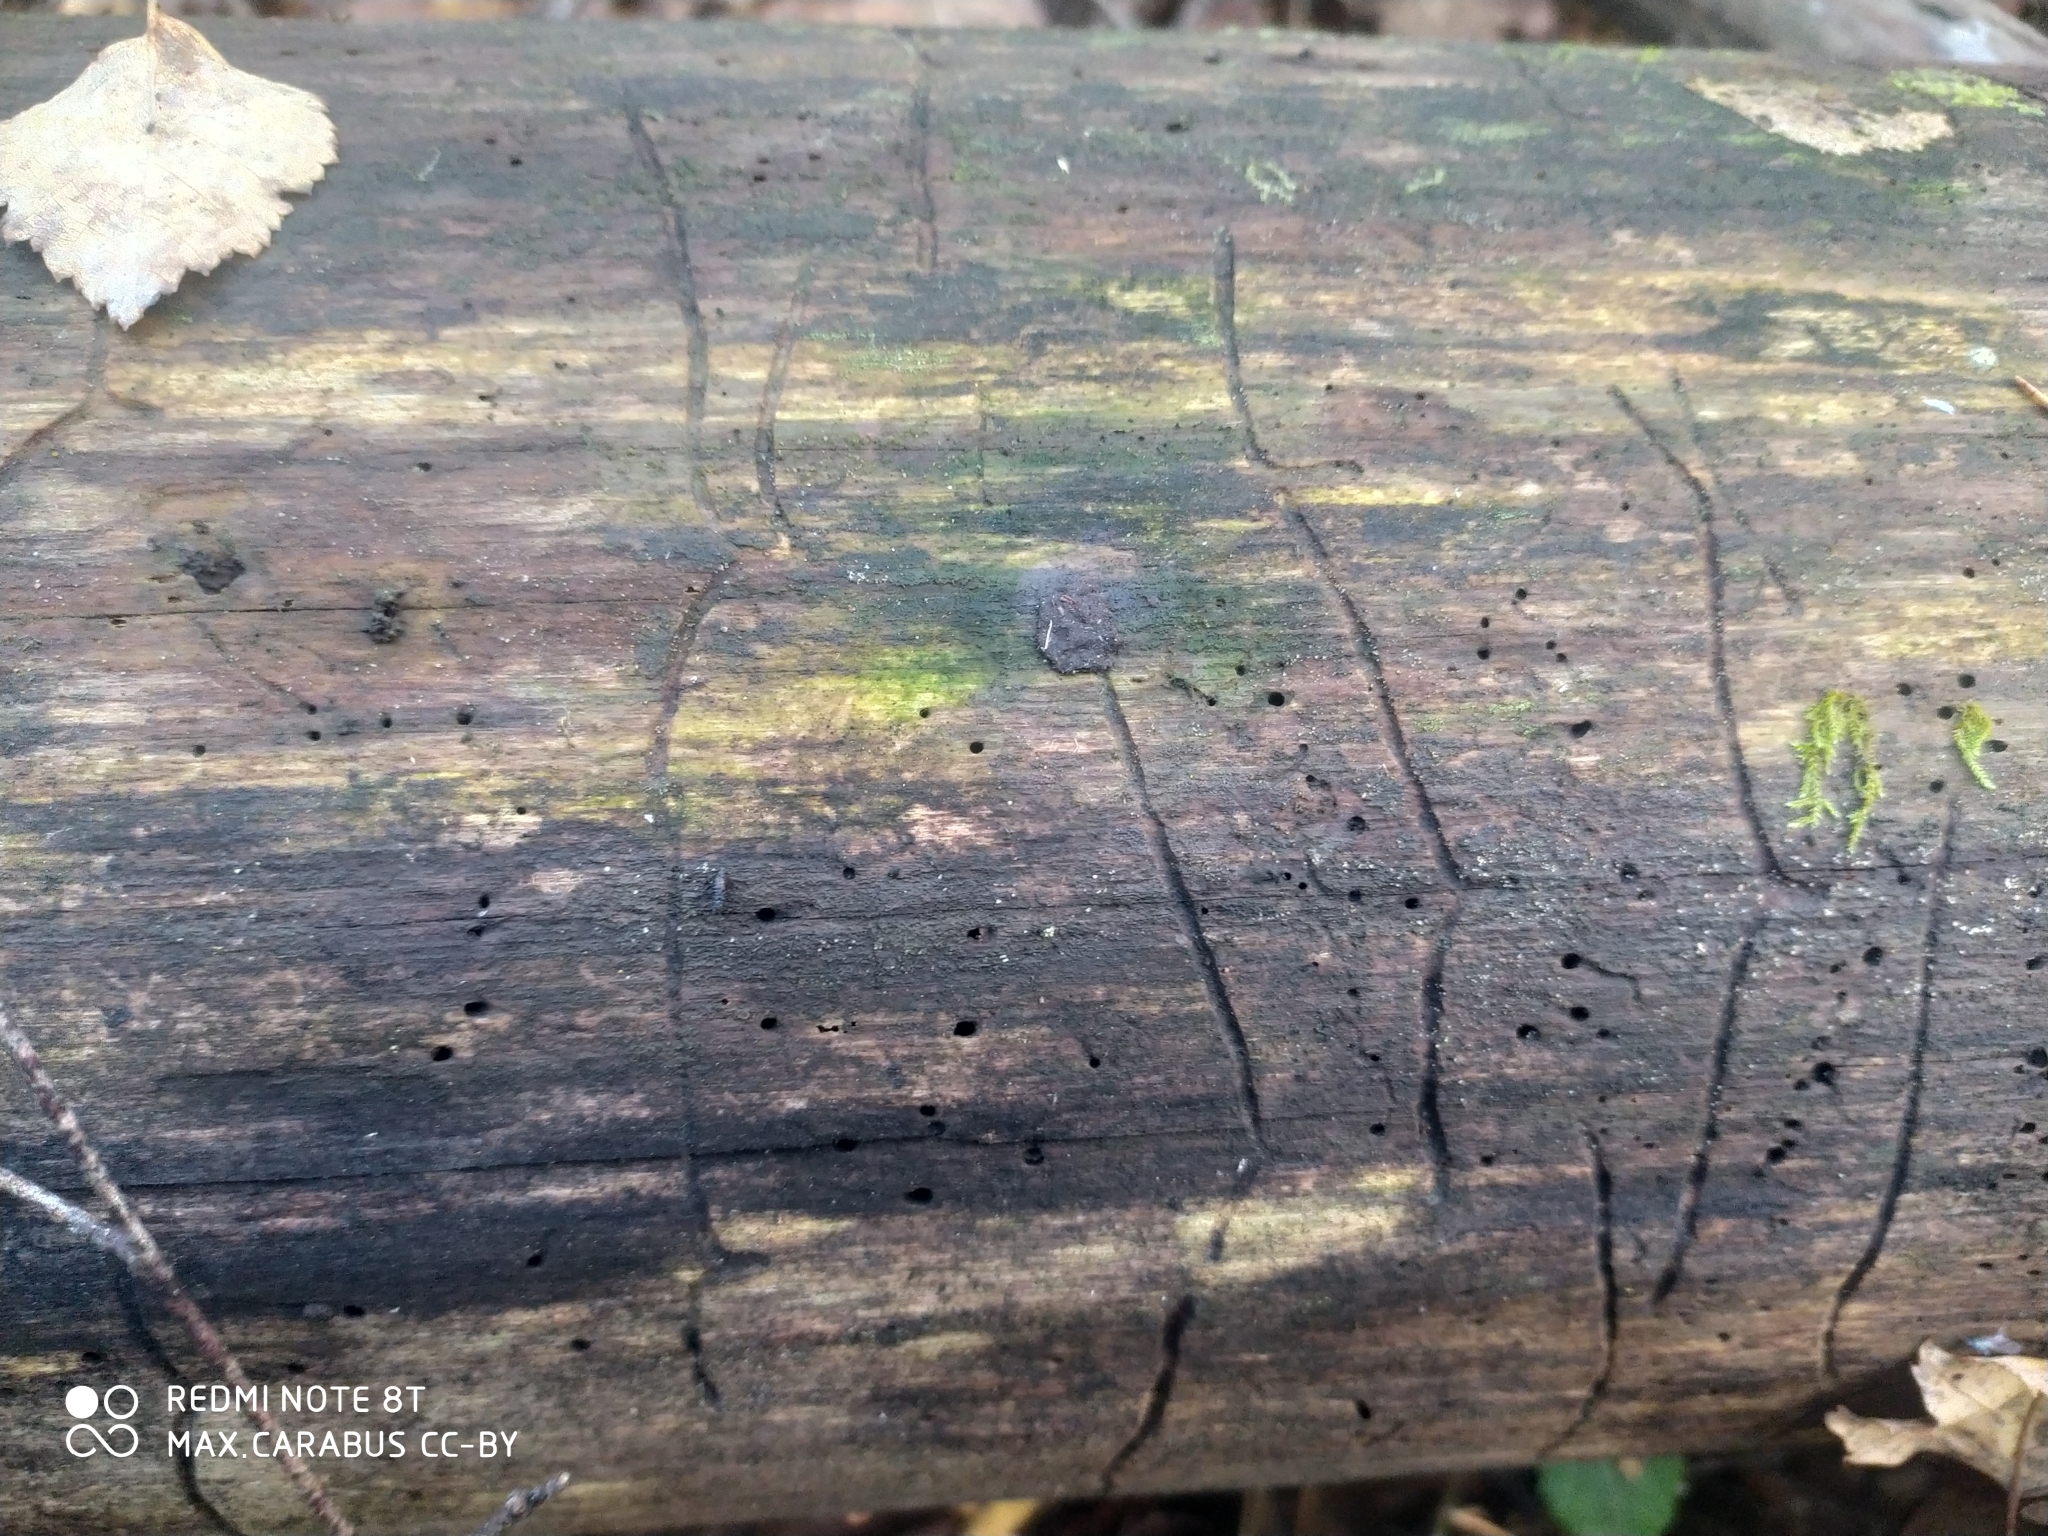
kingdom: Animalia
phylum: Arthropoda
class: Insecta
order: Coleoptera
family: Curculionidae
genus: Tomicus
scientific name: Tomicus minor
